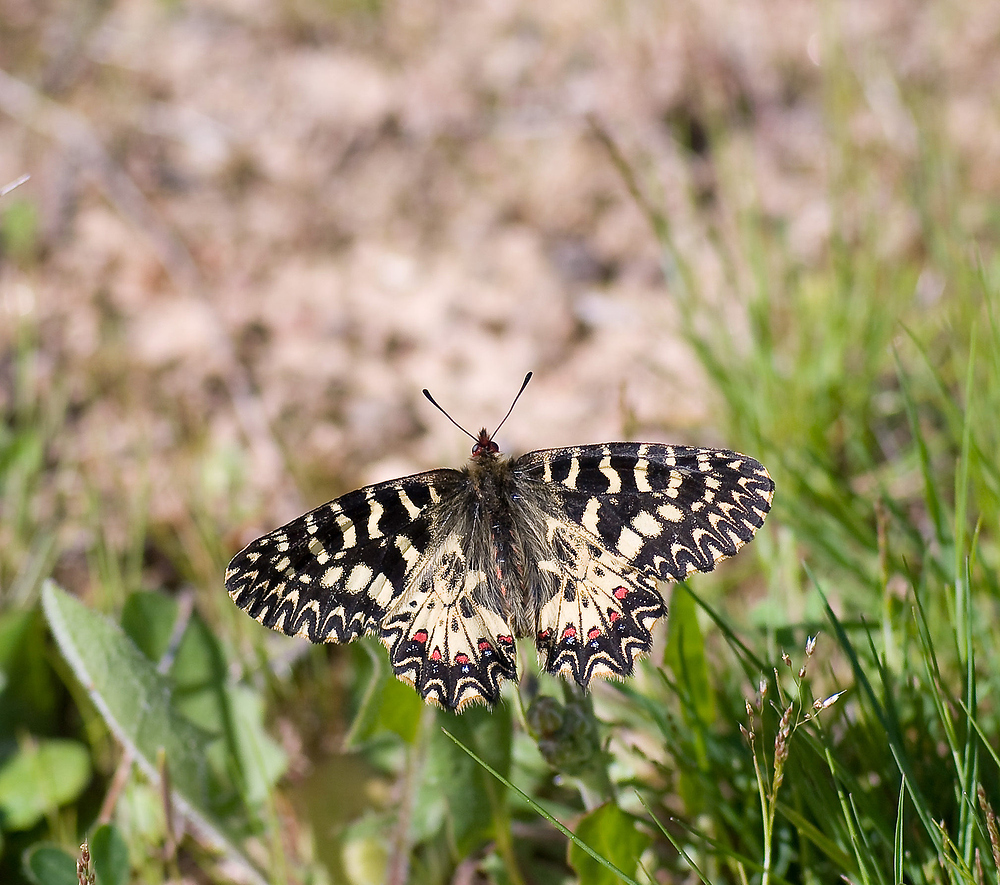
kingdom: Animalia
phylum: Arthropoda
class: Insecta
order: Lepidoptera
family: Papilionidae
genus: Zerynthia
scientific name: Zerynthia polyxena
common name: Southern festoon
